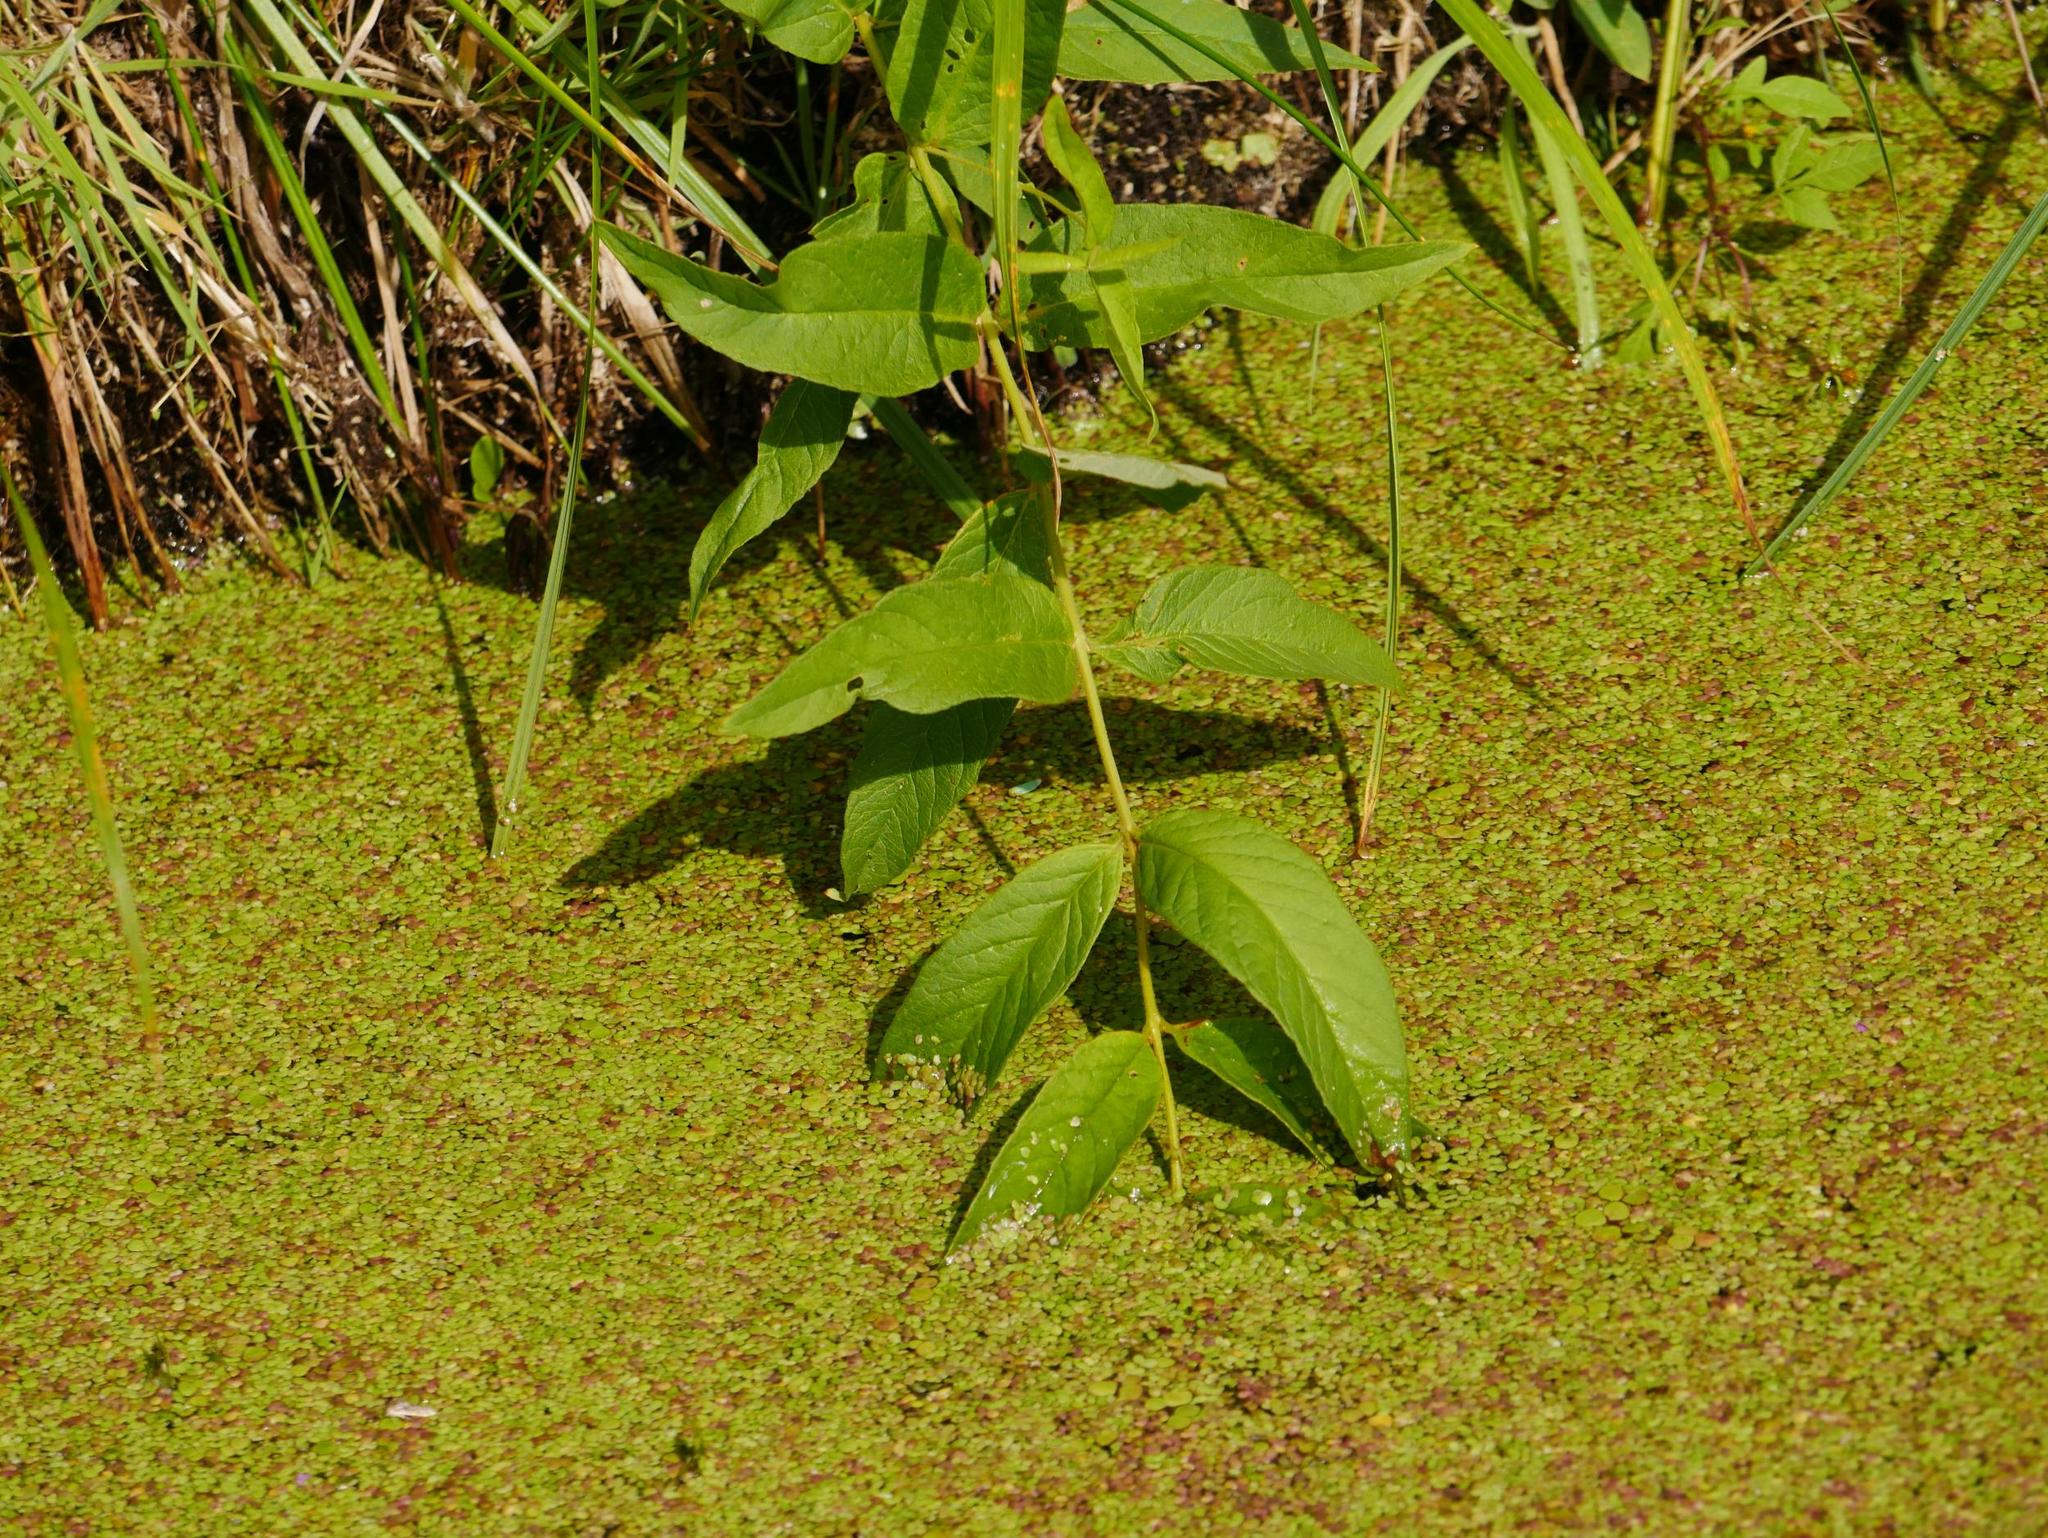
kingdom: Plantae
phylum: Tracheophyta
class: Magnoliopsida
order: Ericales
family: Primulaceae
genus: Lysimachia
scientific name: Lysimachia vulgaris
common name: Yellow loosestrife
